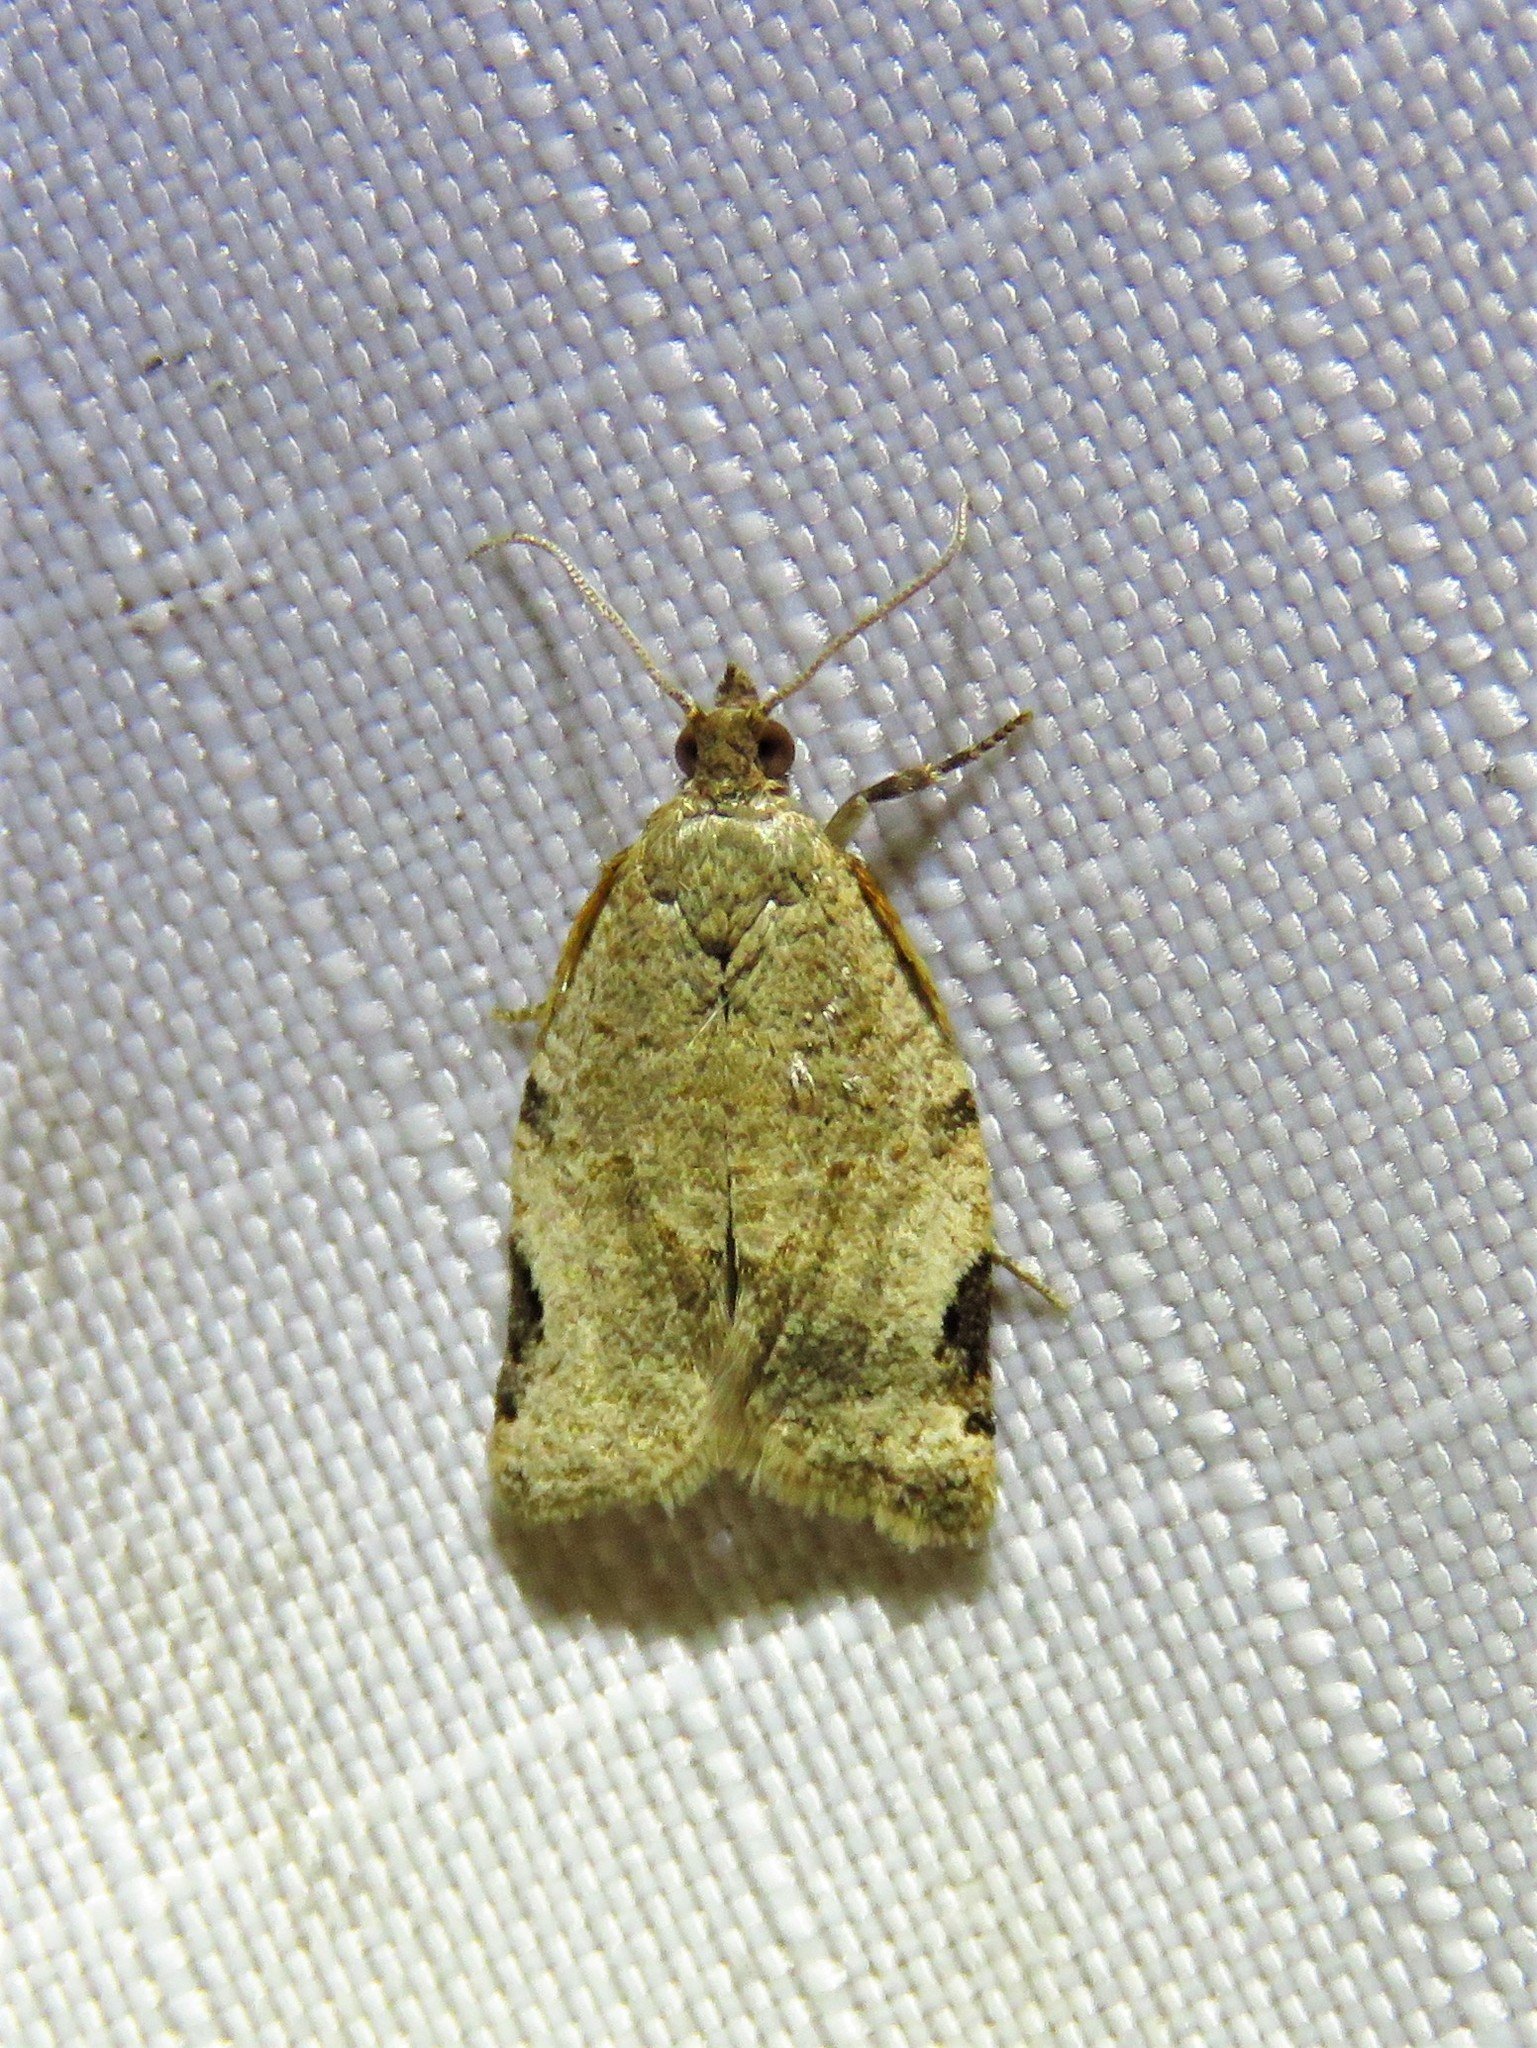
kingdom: Animalia
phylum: Arthropoda
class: Insecta
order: Lepidoptera
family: Tortricidae
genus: Clepsis
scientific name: Clepsis virescana
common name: Greenish apple moth
